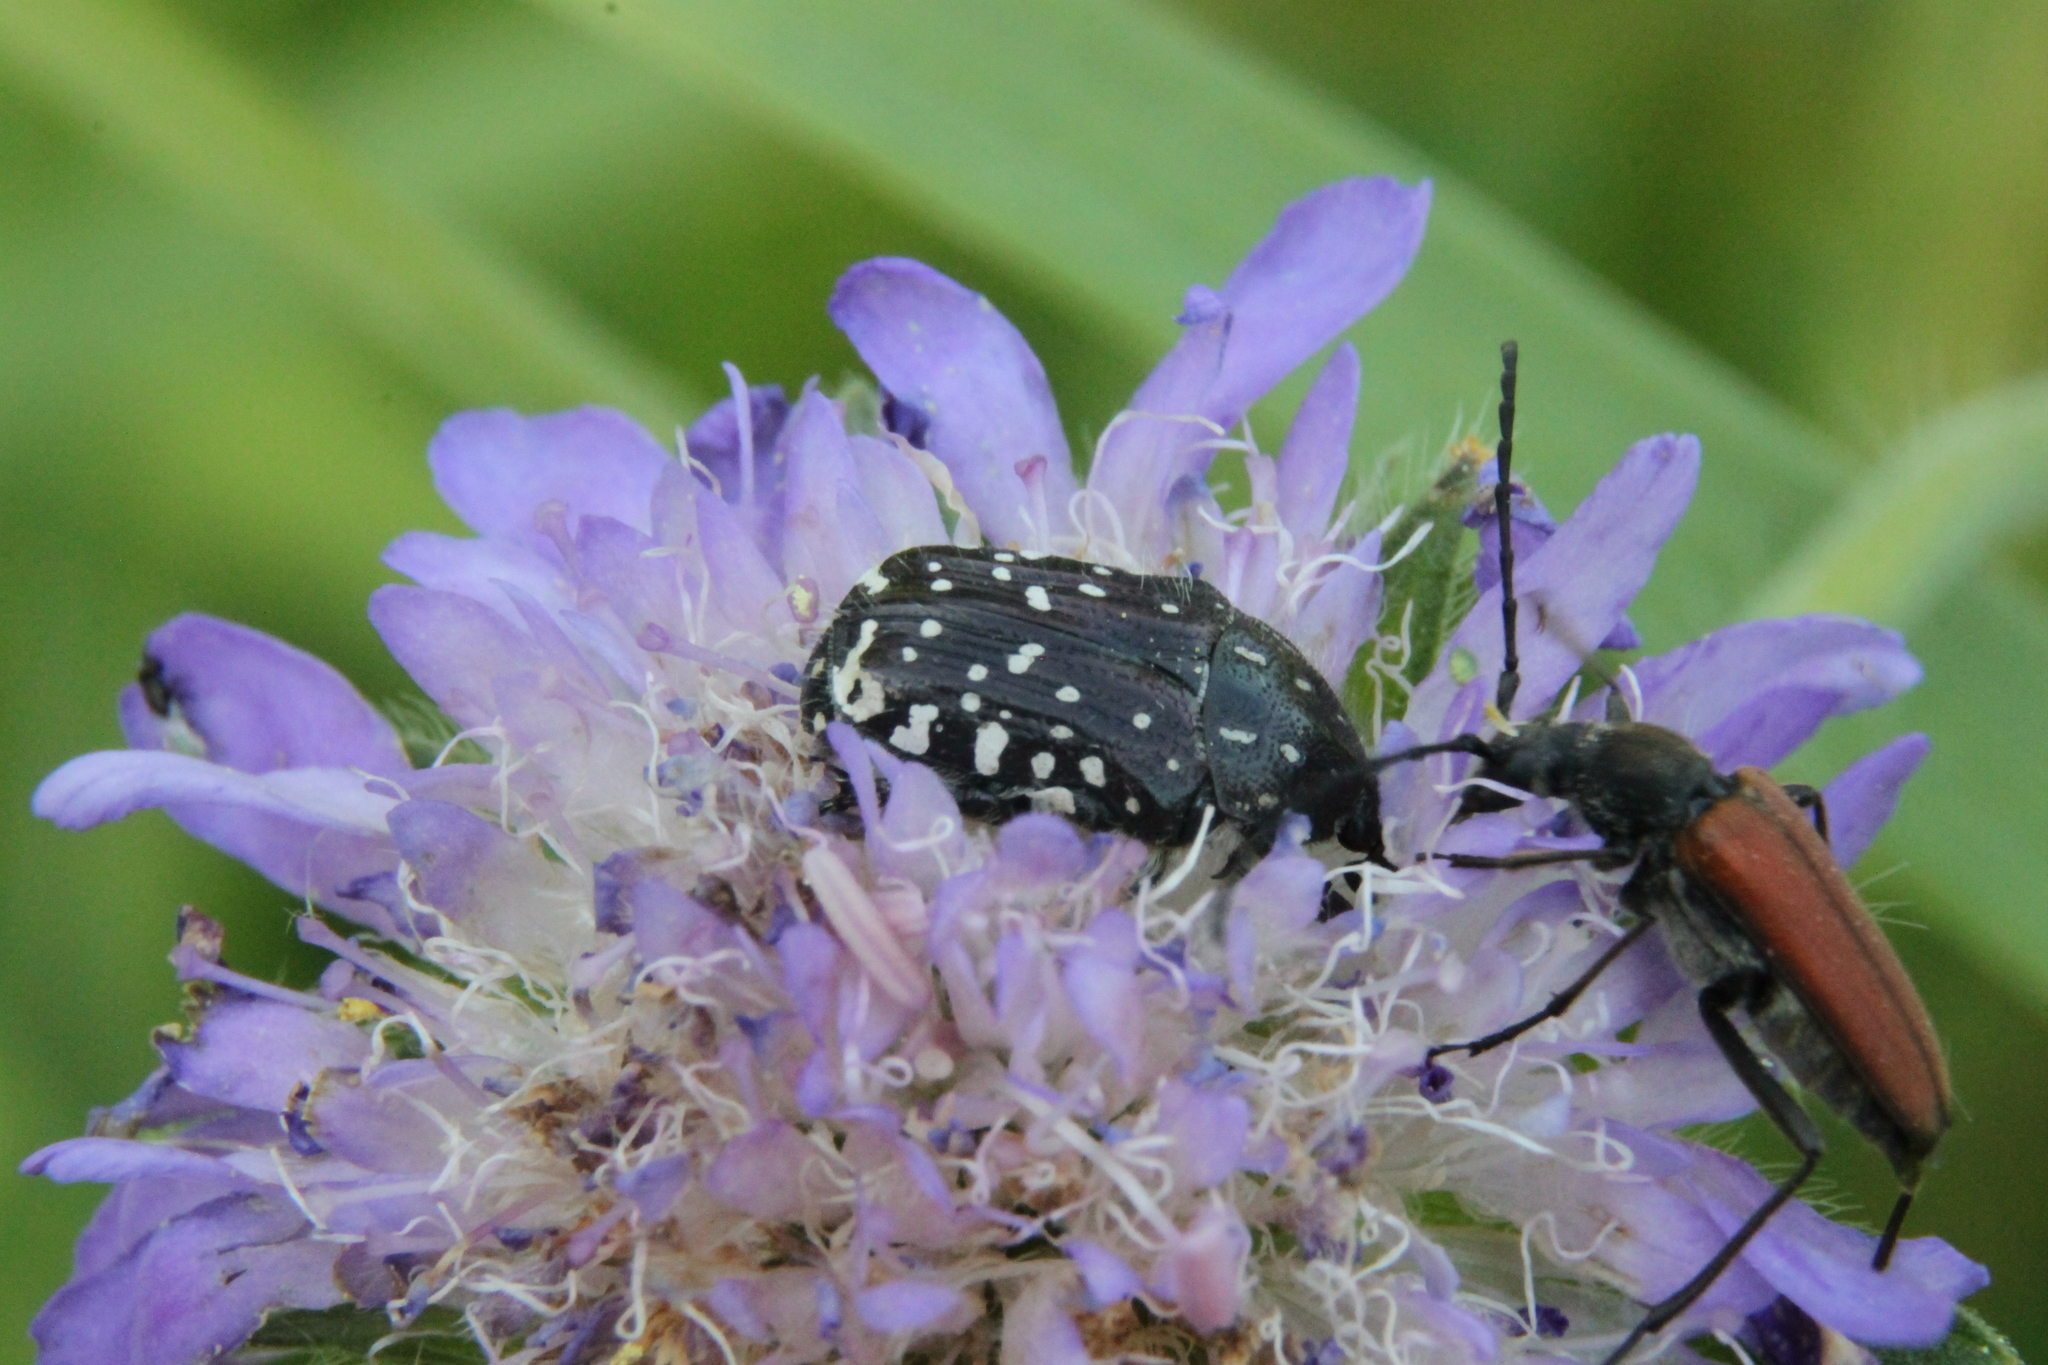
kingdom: Animalia
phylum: Arthropoda
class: Insecta
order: Coleoptera
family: Scarabaeidae
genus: Oxythyrea
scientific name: Oxythyrea funesta
